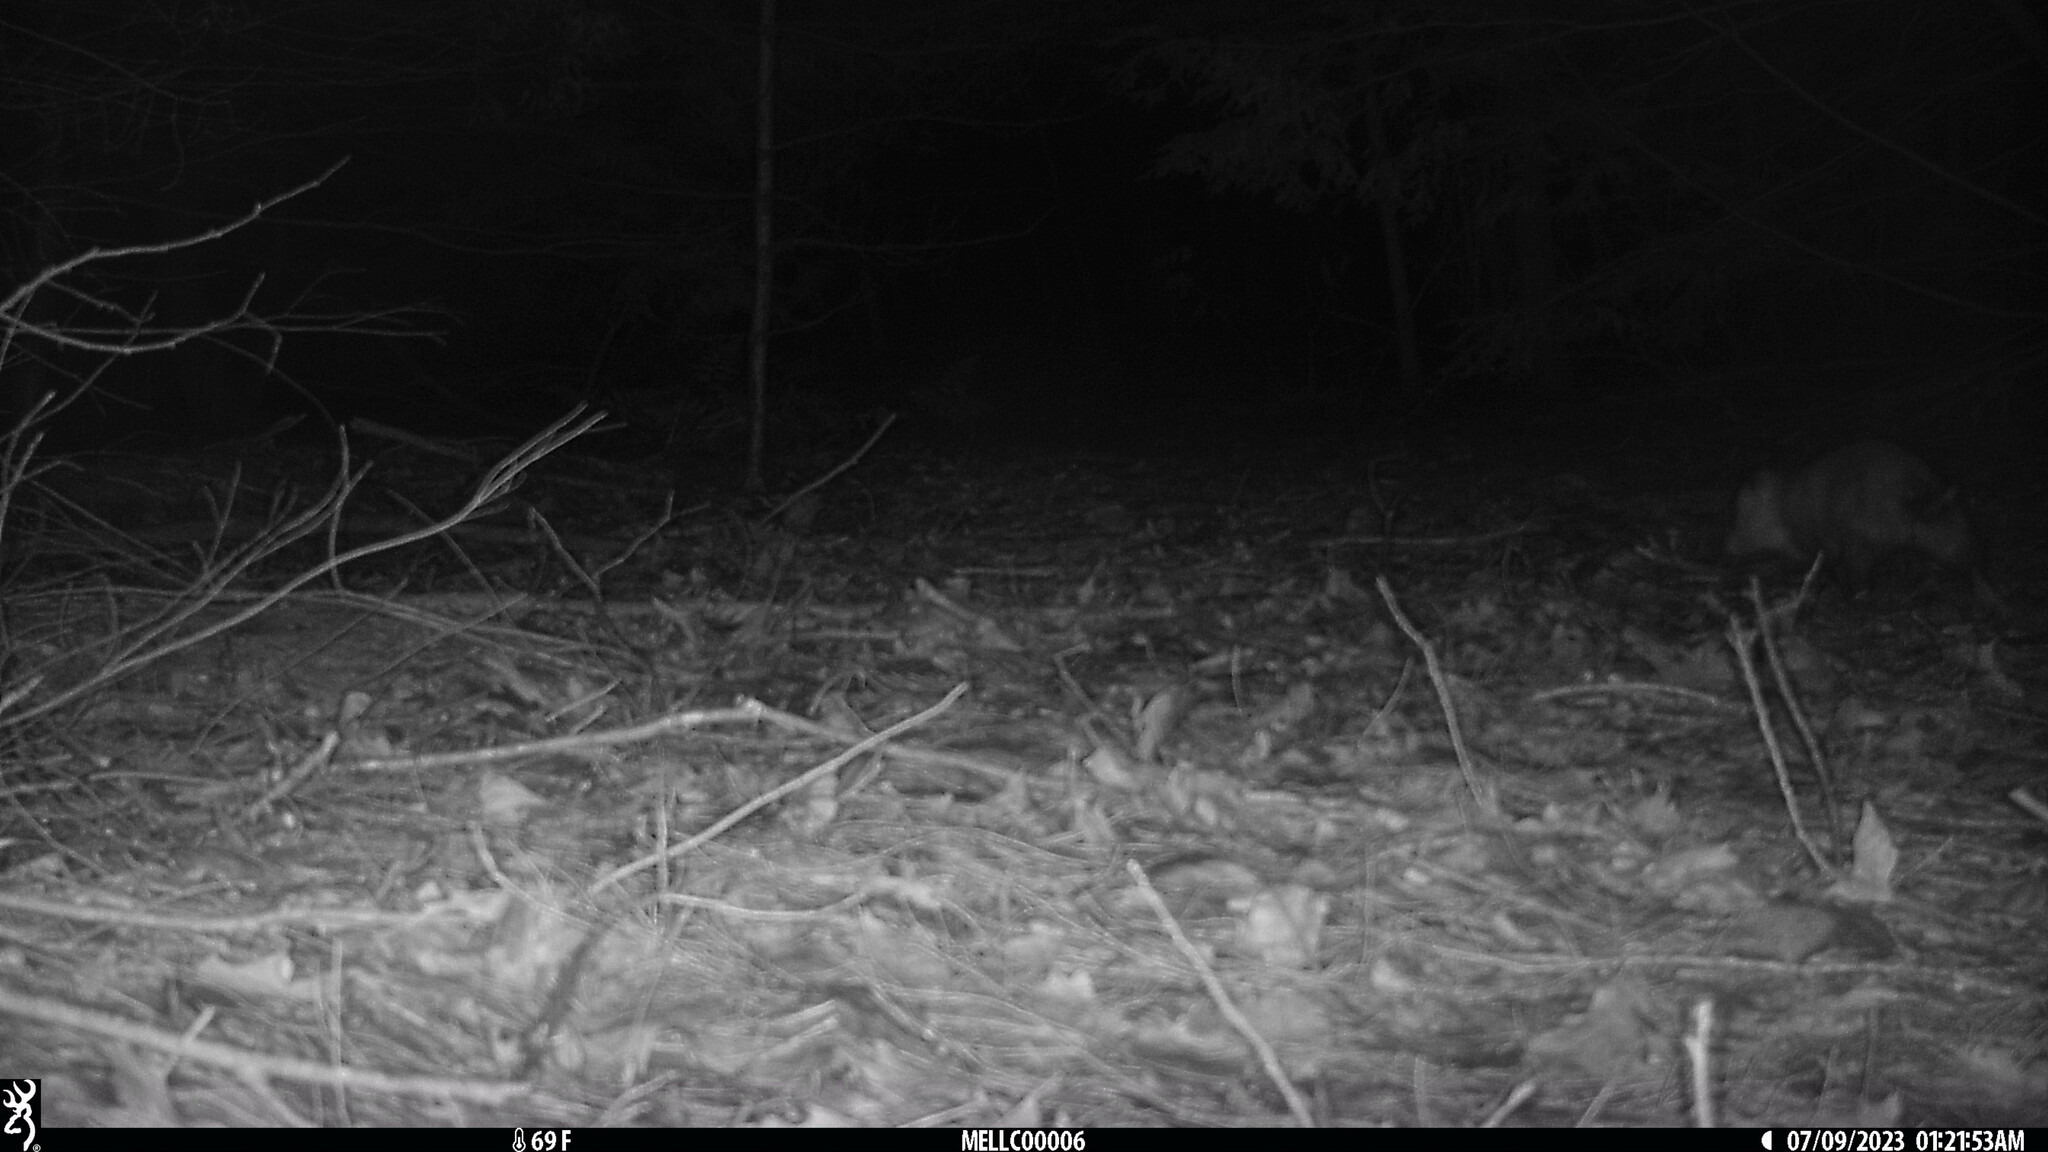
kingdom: Animalia
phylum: Chordata
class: Mammalia
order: Didelphimorphia
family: Didelphidae
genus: Didelphis
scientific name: Didelphis virginiana
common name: Virginia opossum
